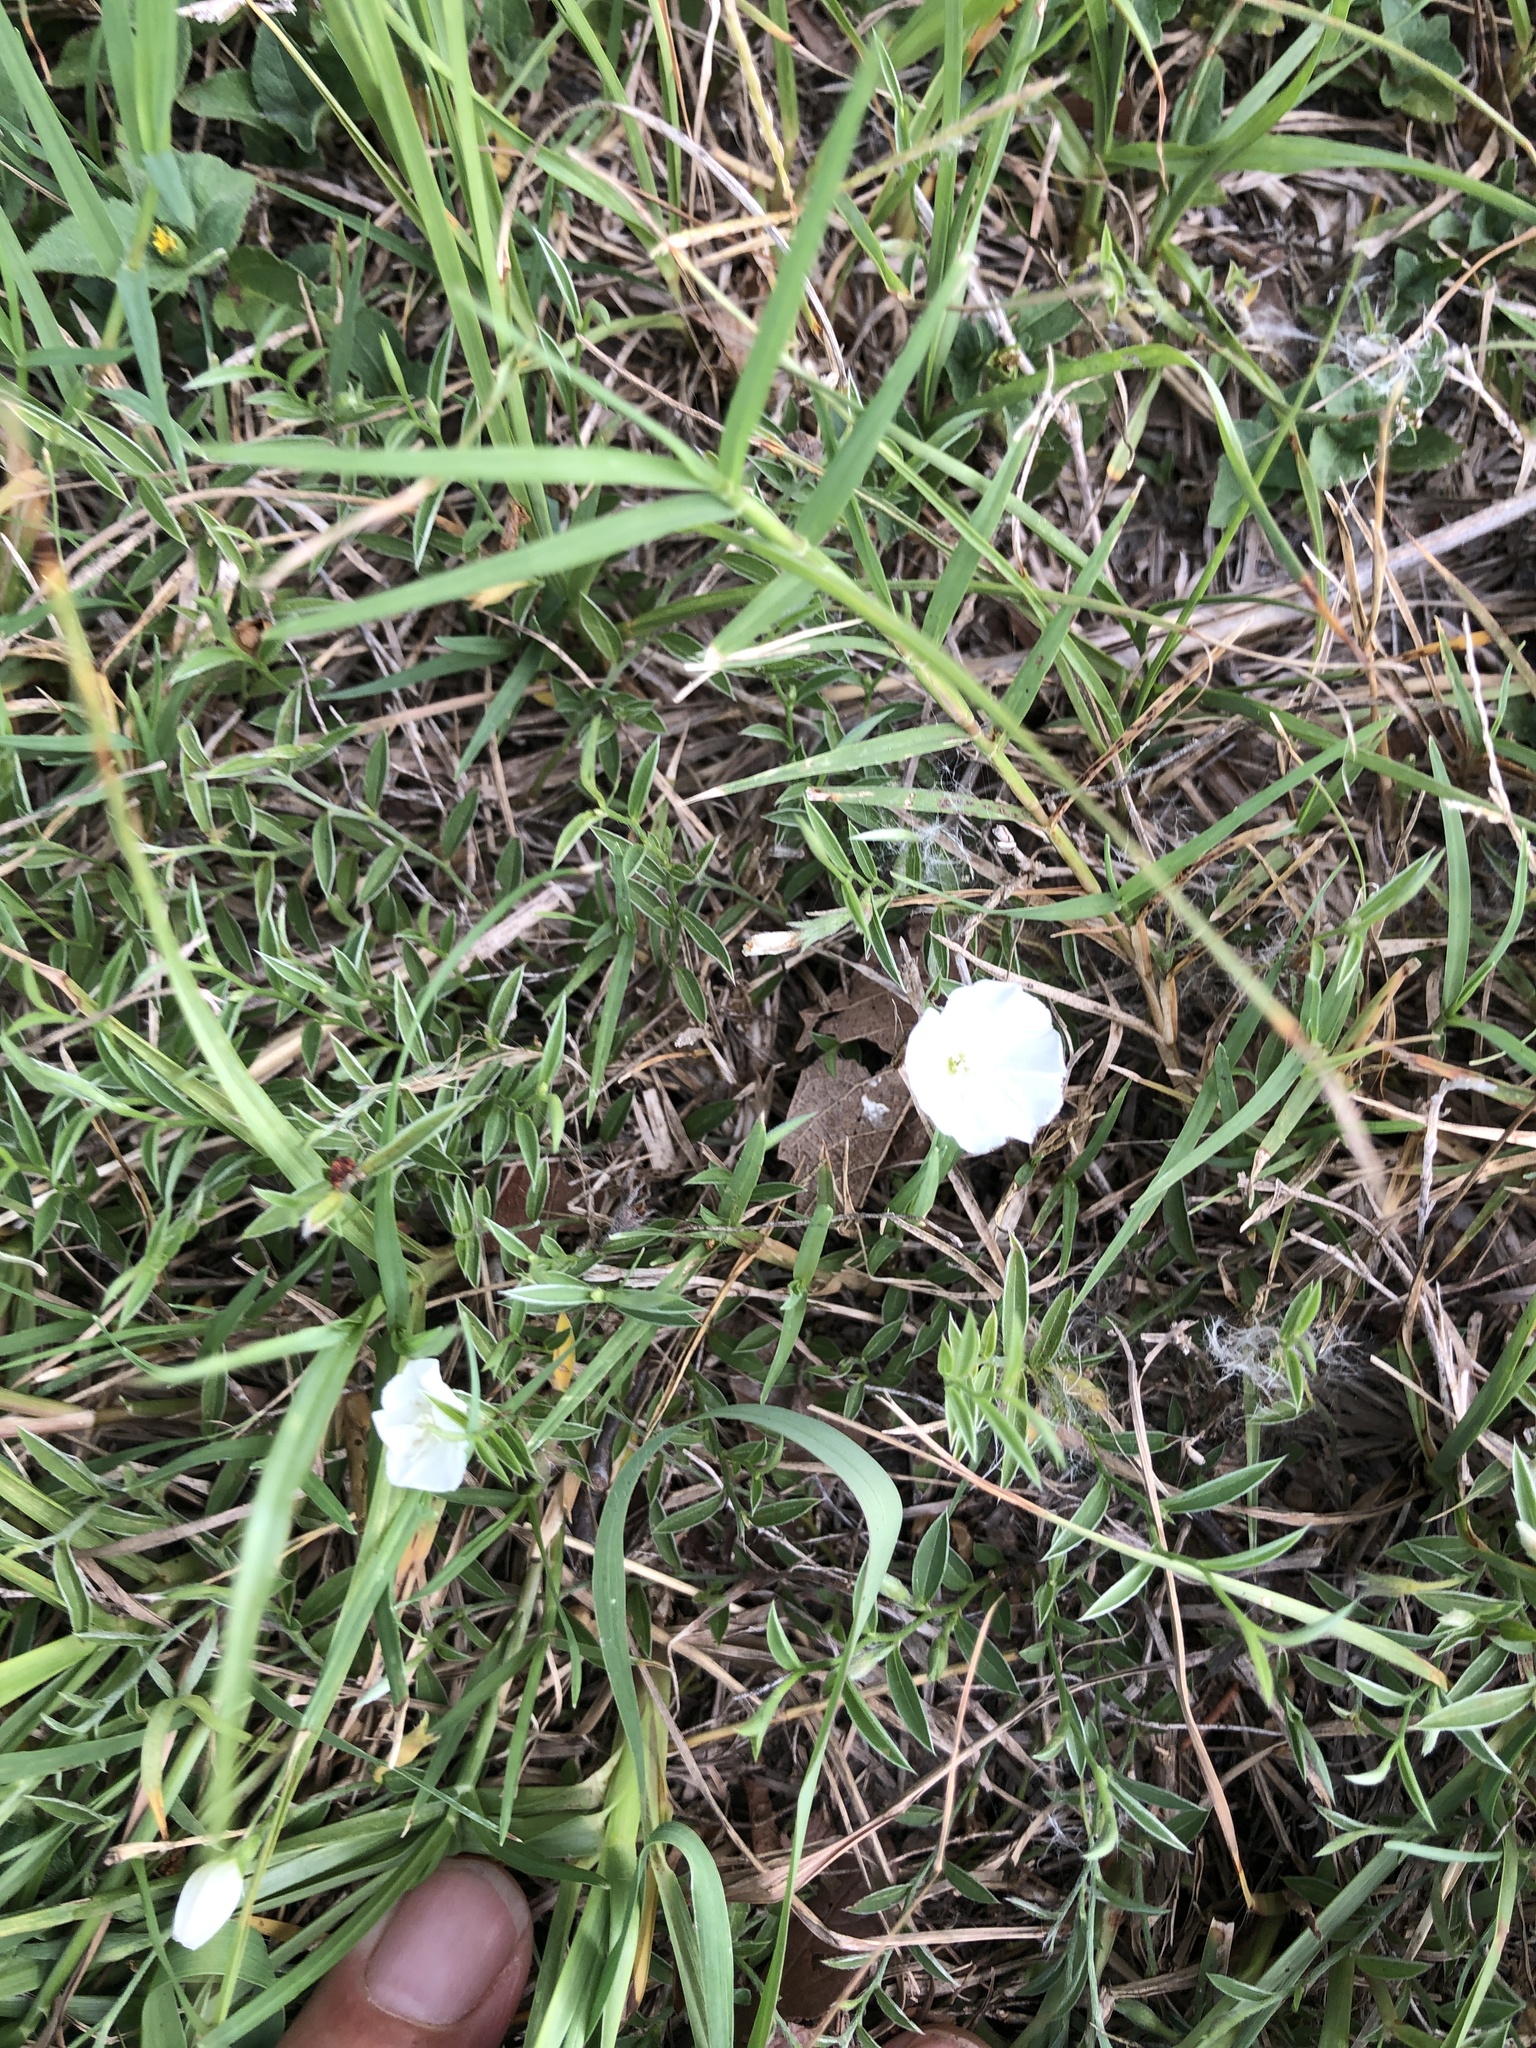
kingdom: Plantae
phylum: Tracheophyta
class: Magnoliopsida
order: Solanales
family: Convolvulaceae
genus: Evolvulus
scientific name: Evolvulus sericeus
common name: Blue dots
